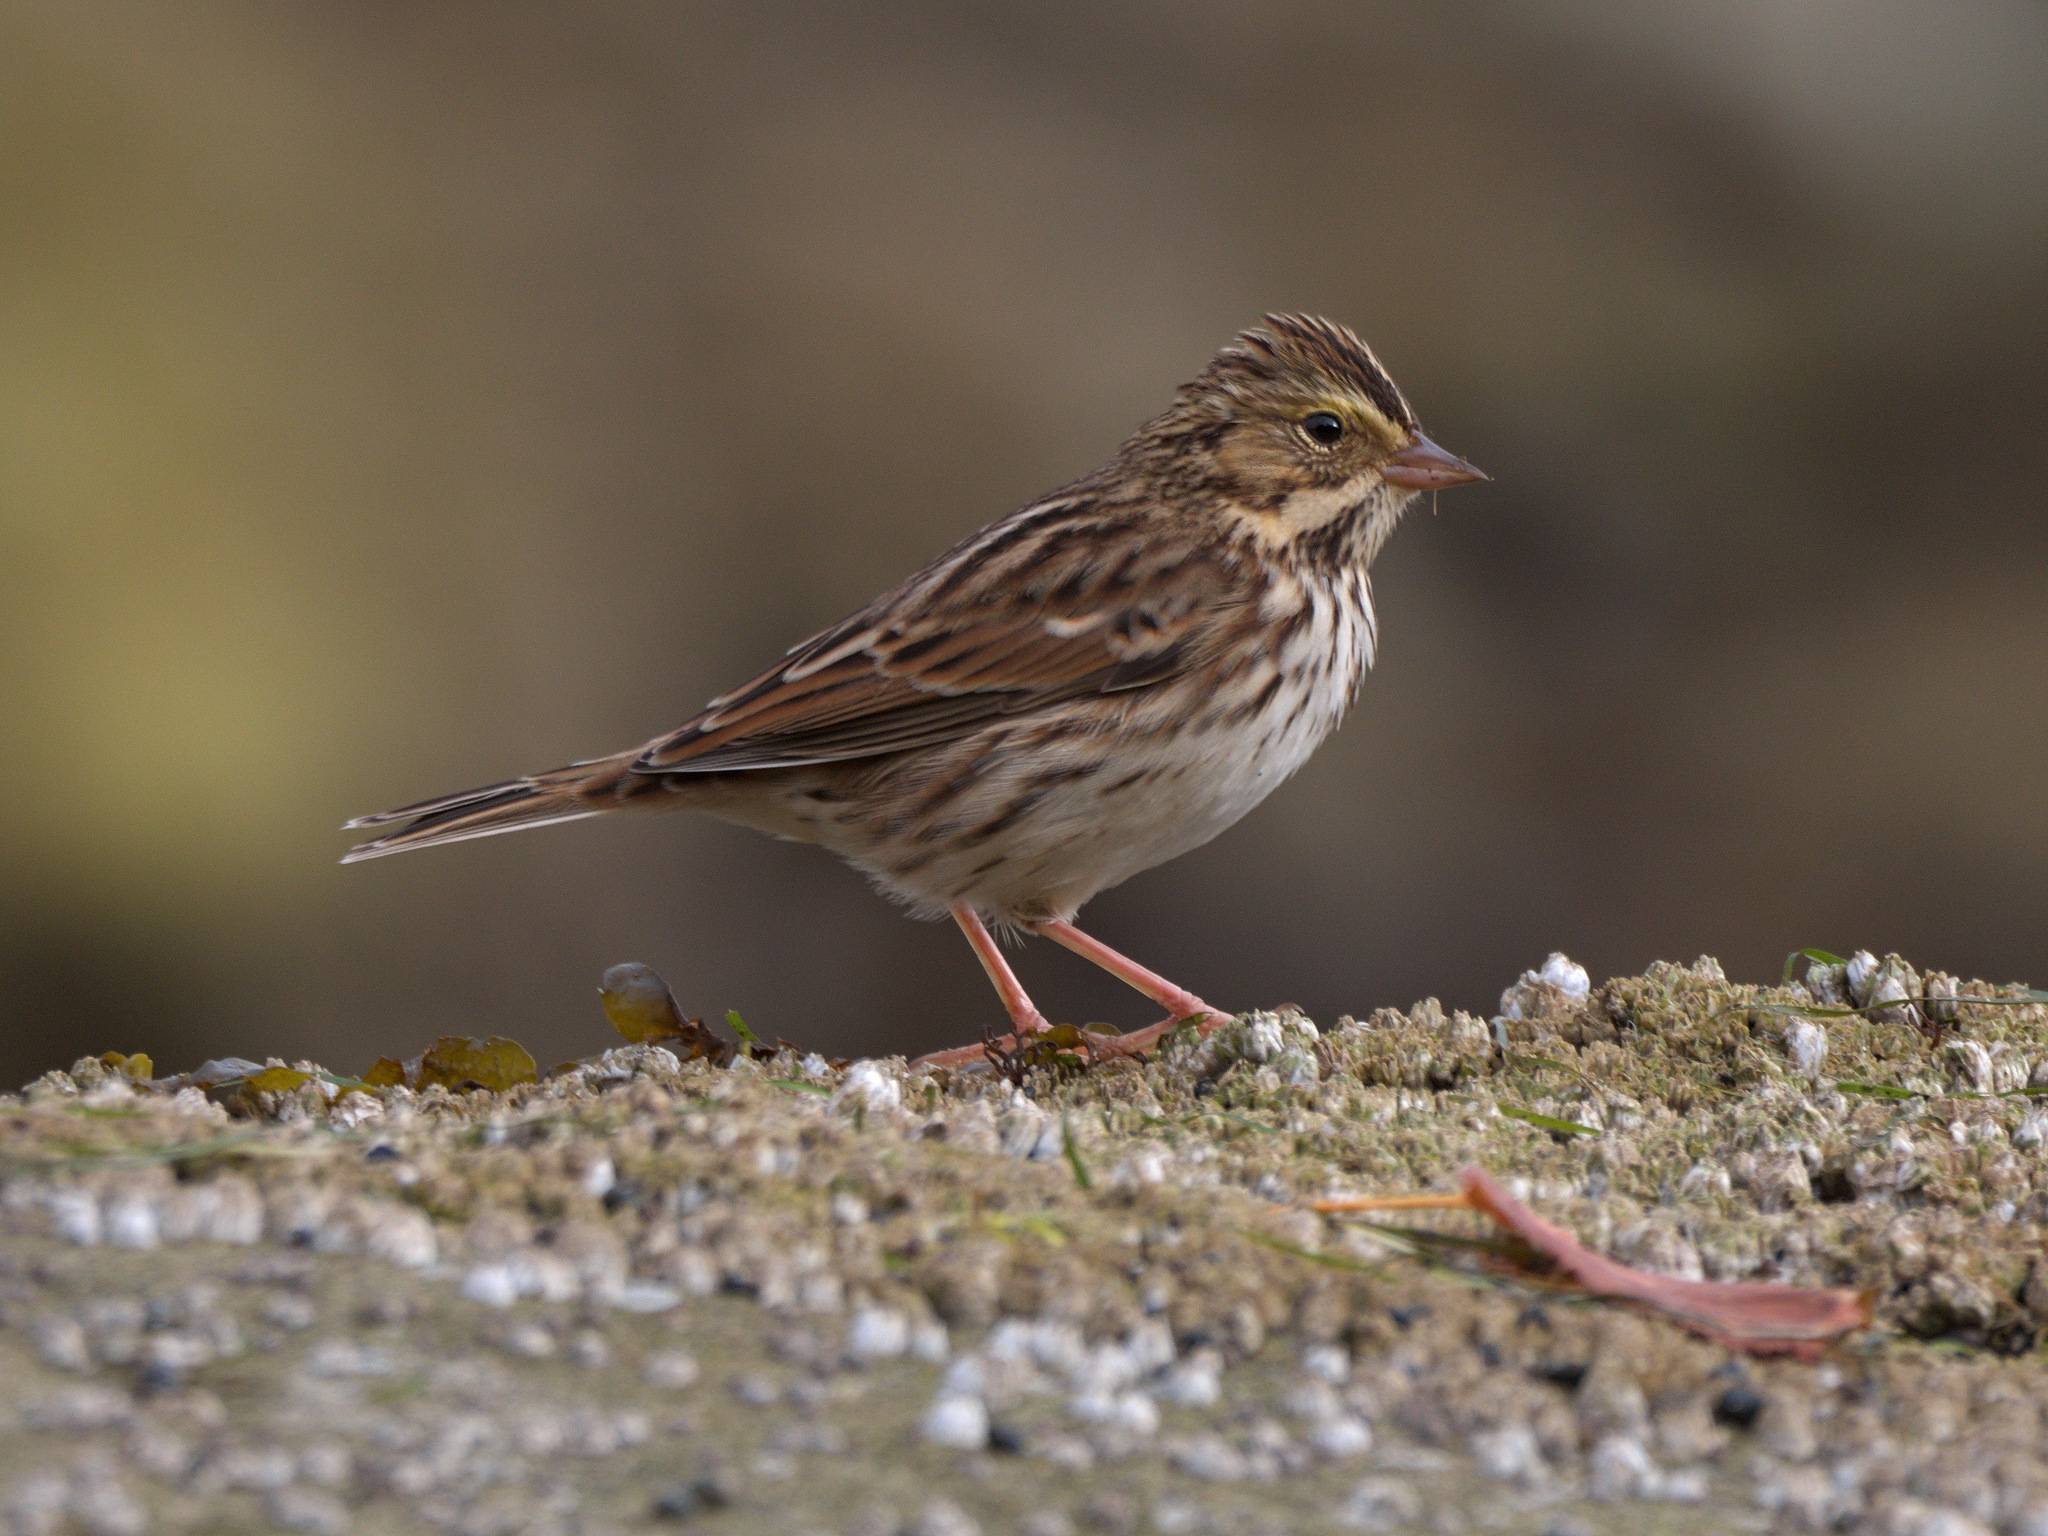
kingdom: Animalia
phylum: Chordata
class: Aves
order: Passeriformes
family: Passerellidae
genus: Passerculus
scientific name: Passerculus sandwichensis
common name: Savannah sparrow
